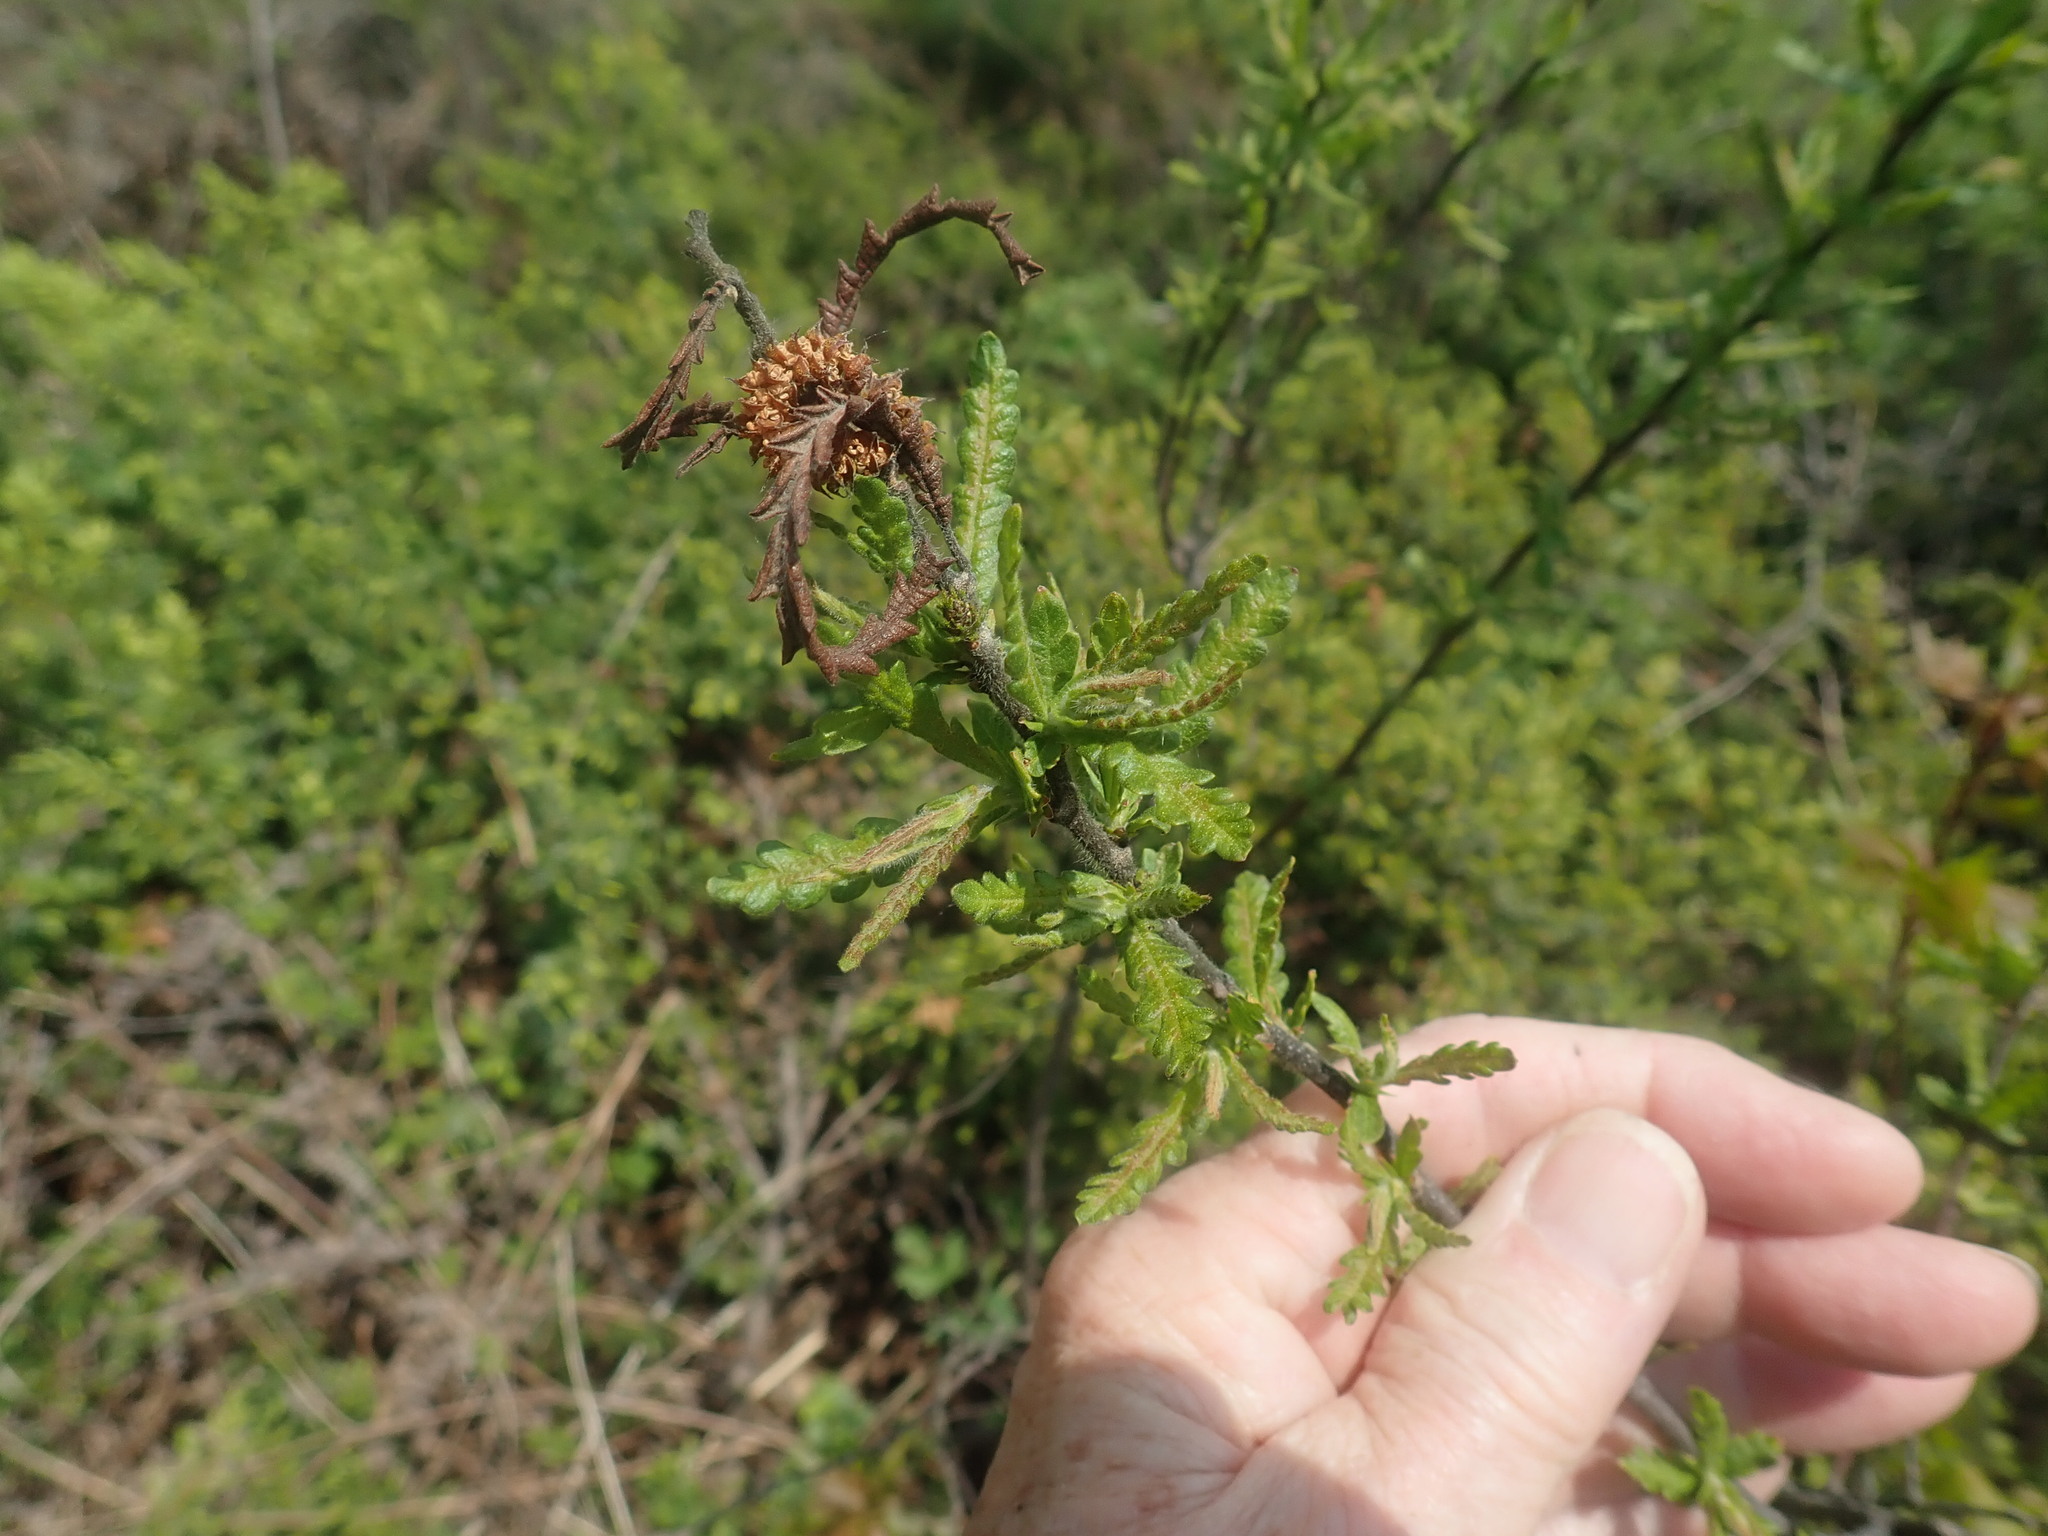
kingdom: Plantae
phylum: Tracheophyta
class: Magnoliopsida
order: Fagales
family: Myricaceae
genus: Comptonia
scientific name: Comptonia peregrina
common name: Sweet-fern
